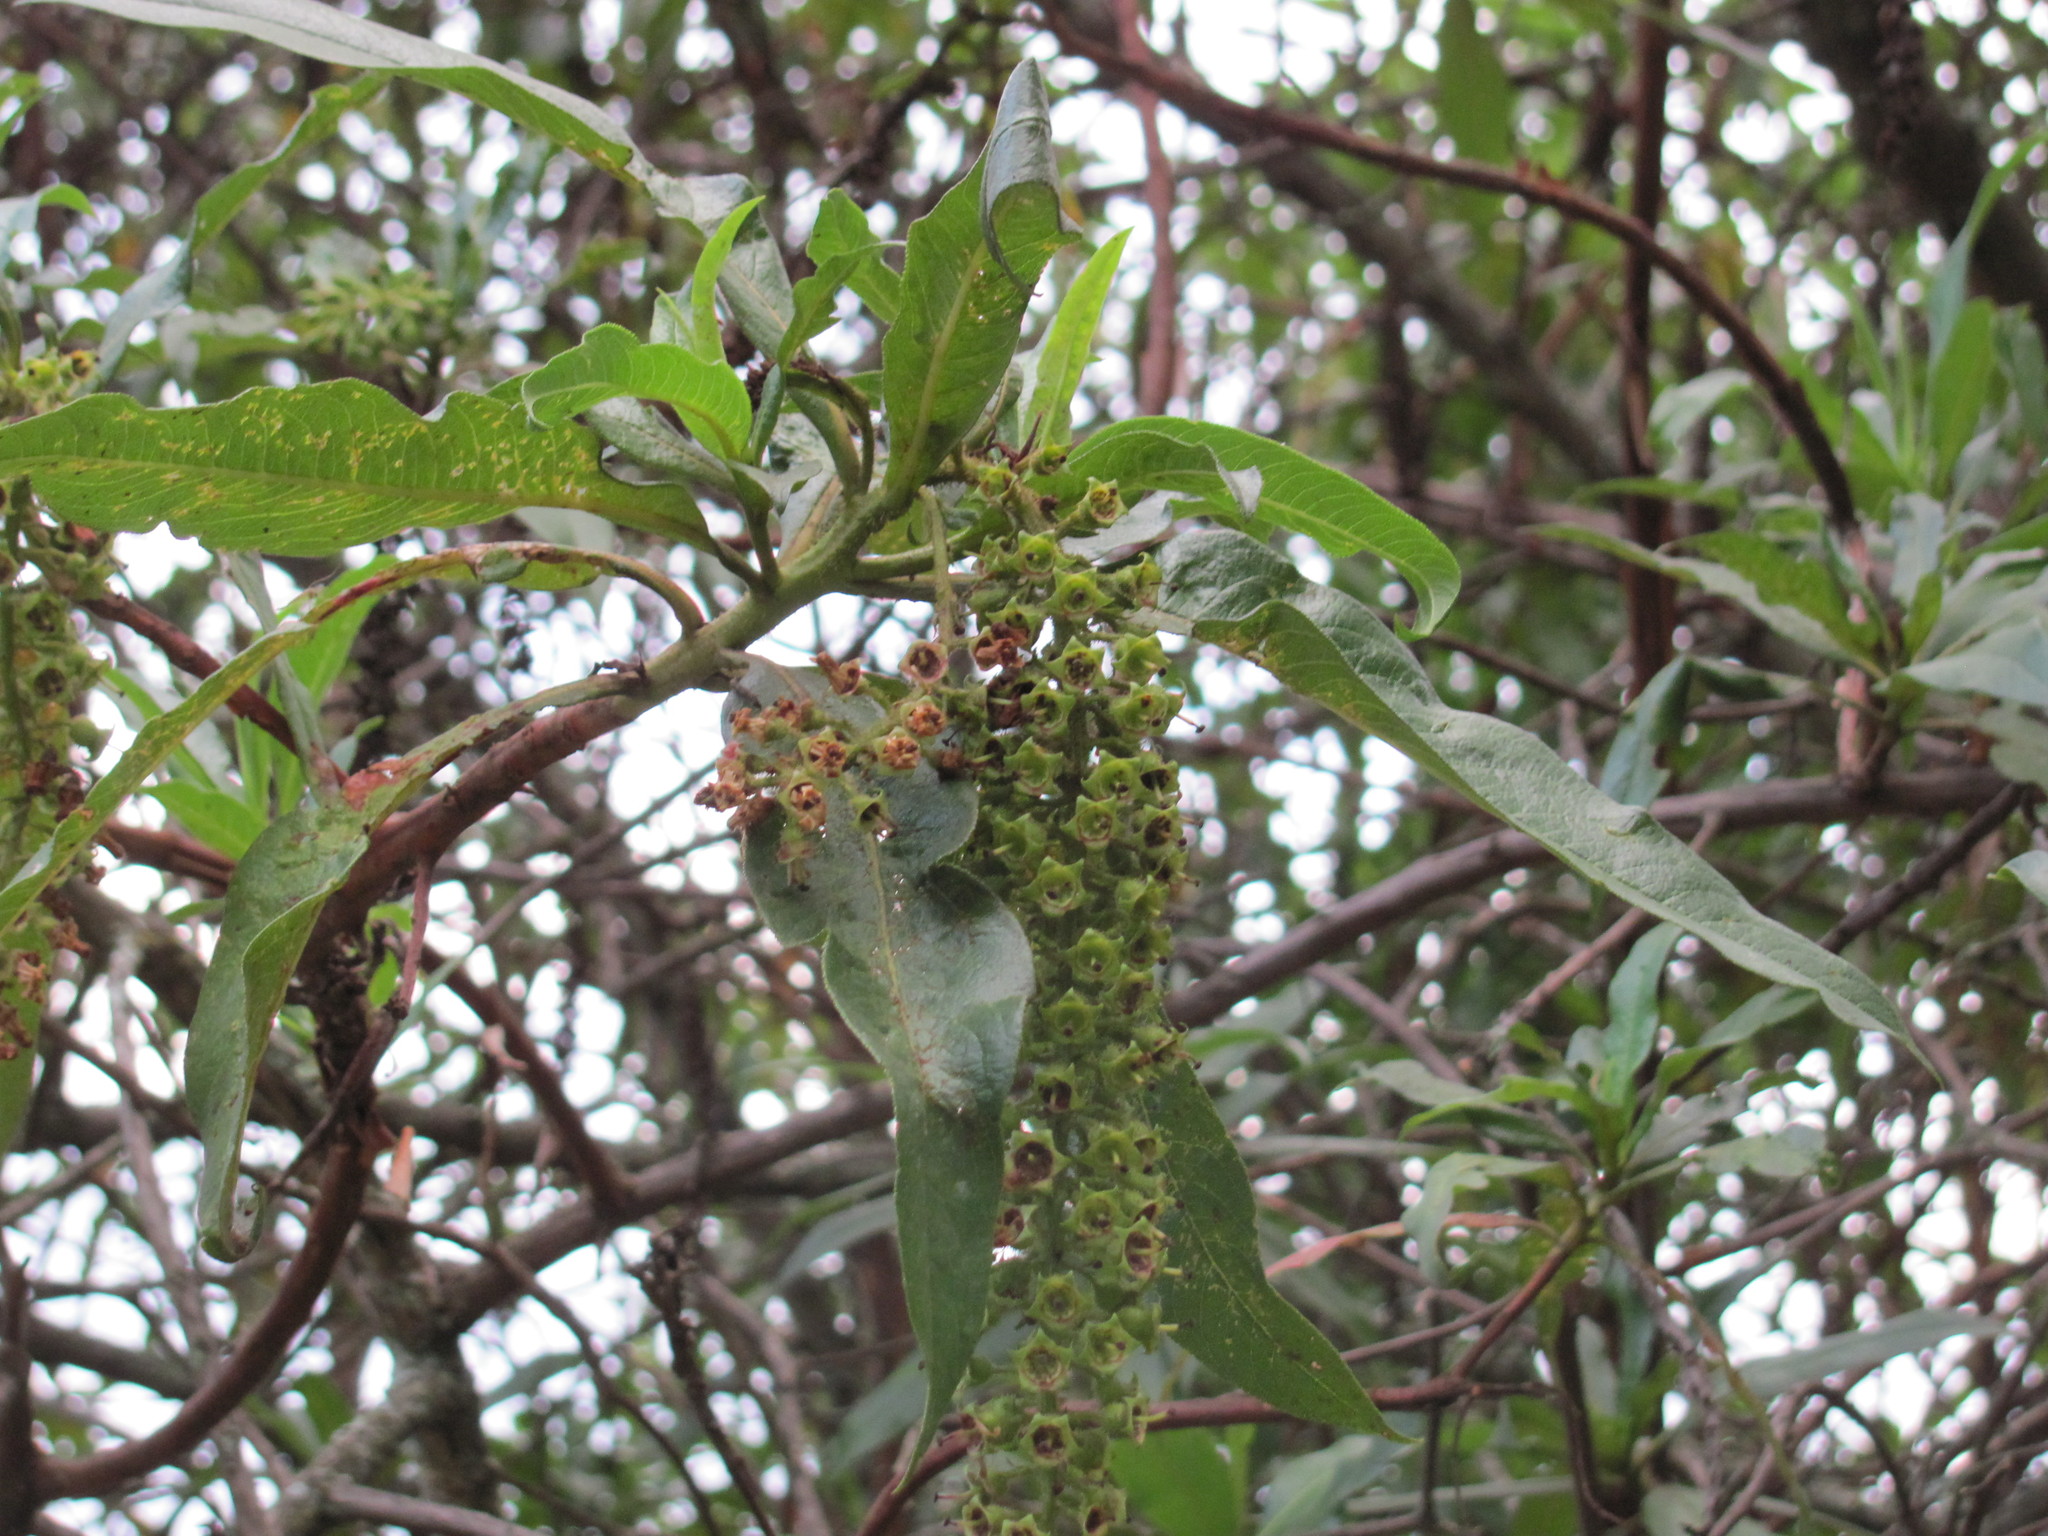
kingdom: Plantae
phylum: Tracheophyta
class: Magnoliopsida
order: Escalloniales
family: Escalloniaceae
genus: Escallonia
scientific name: Escallonia pendula
